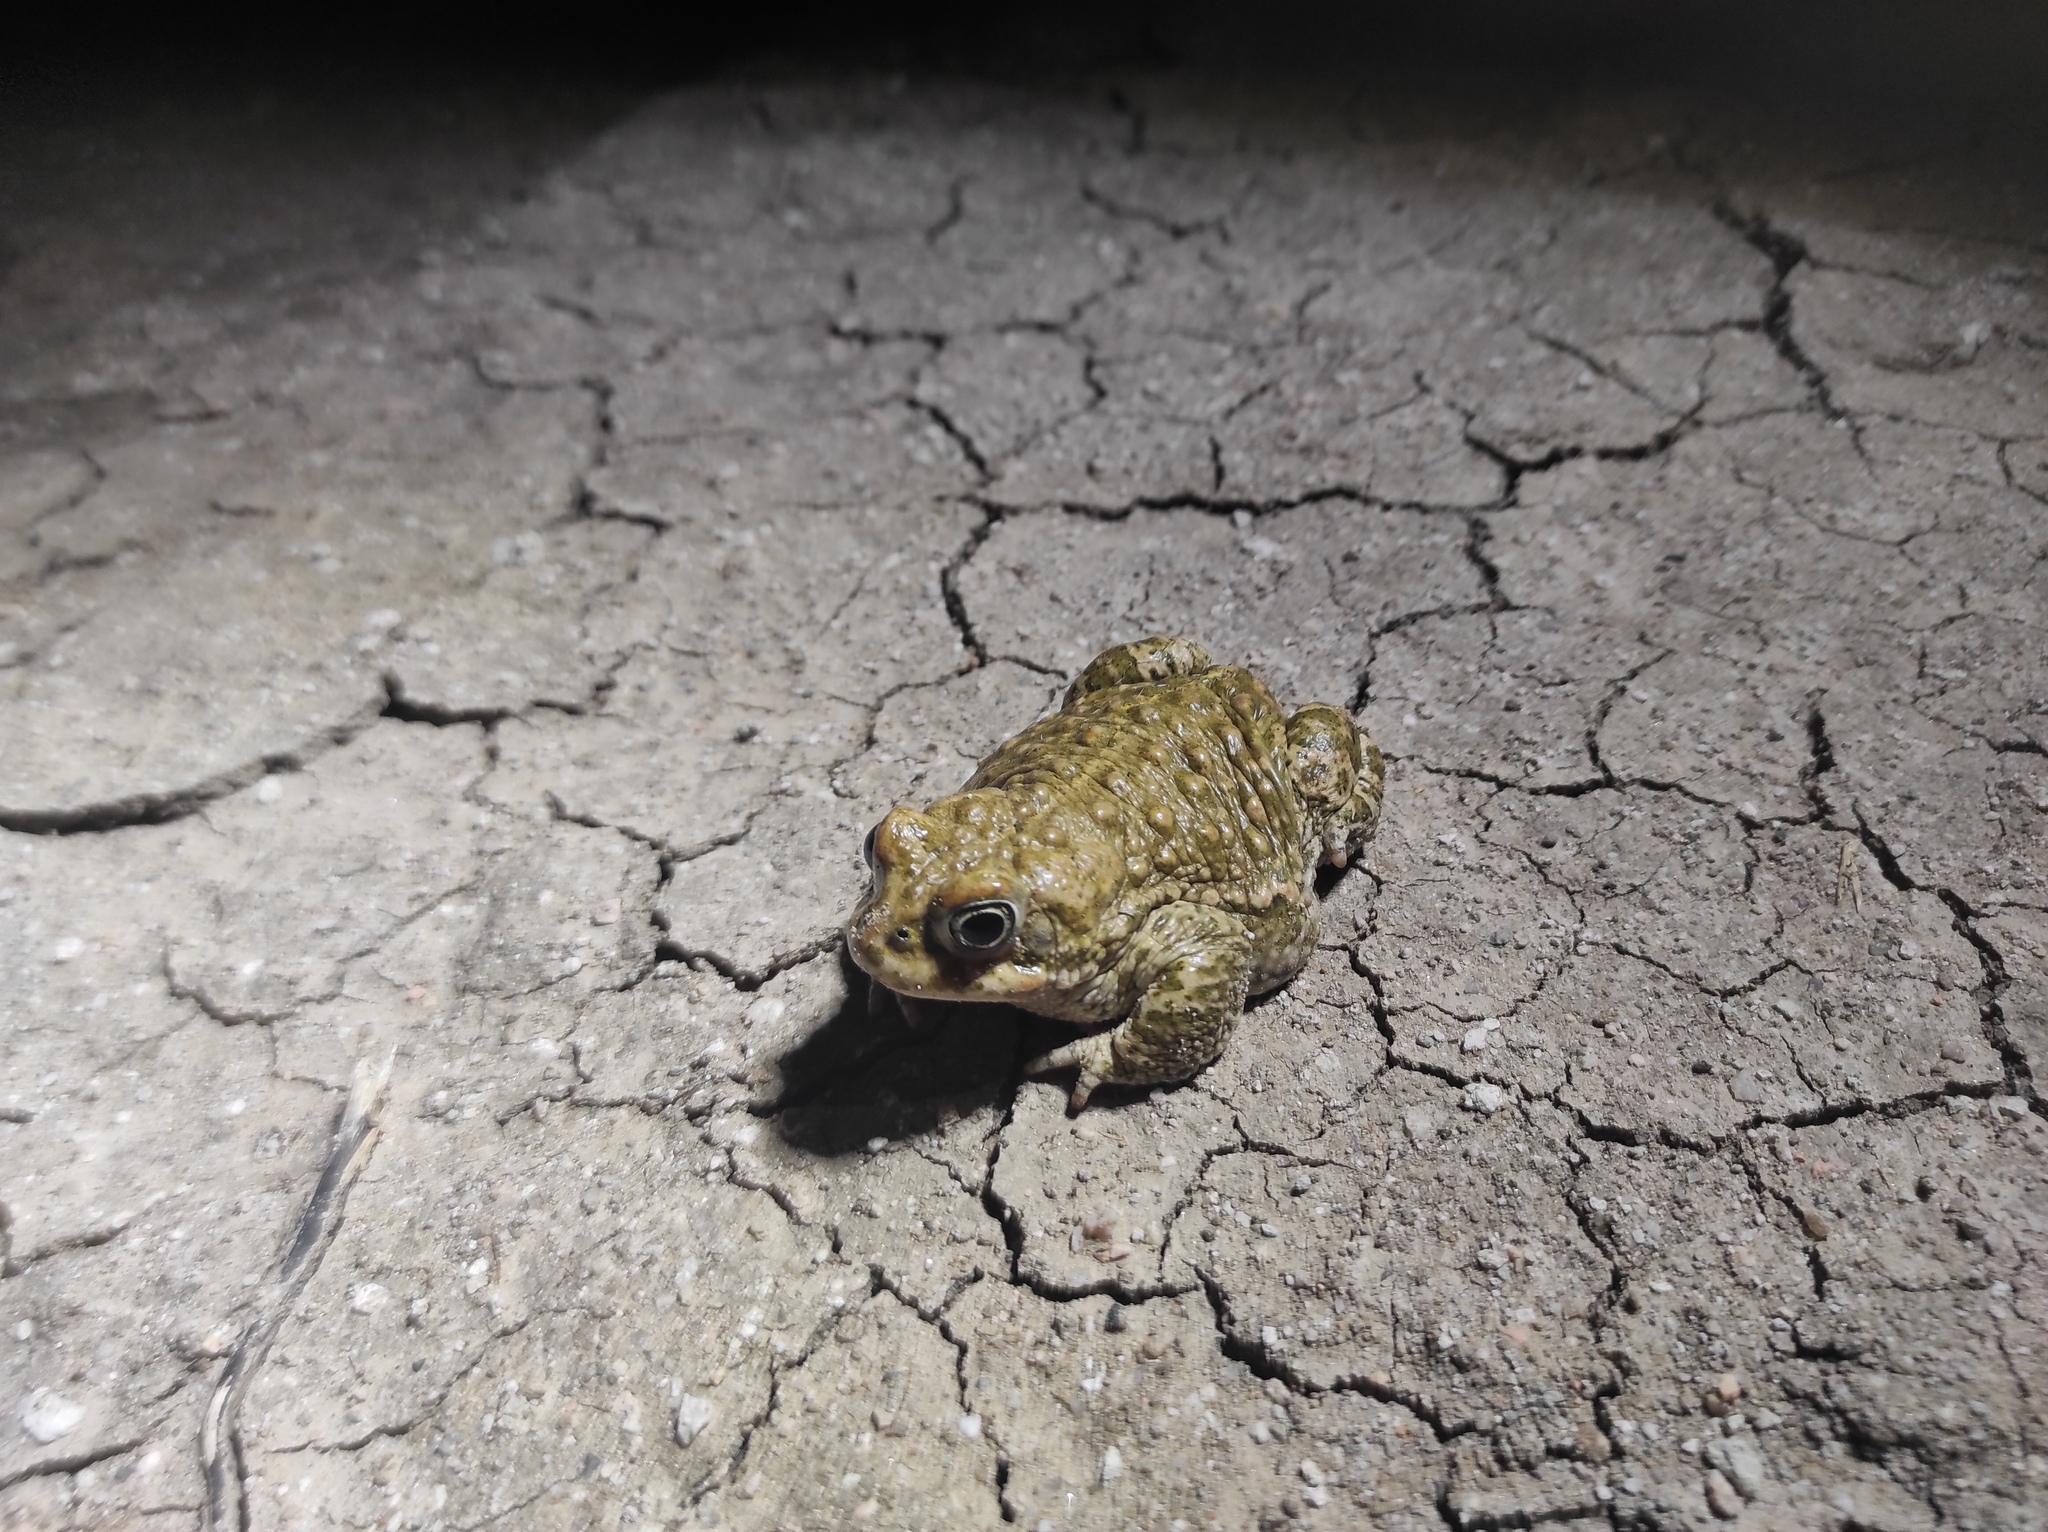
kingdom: Animalia
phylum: Chordata
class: Amphibia
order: Anura
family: Bufonidae
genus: Epidalea
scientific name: Epidalea calamita
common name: Natterjack toad
